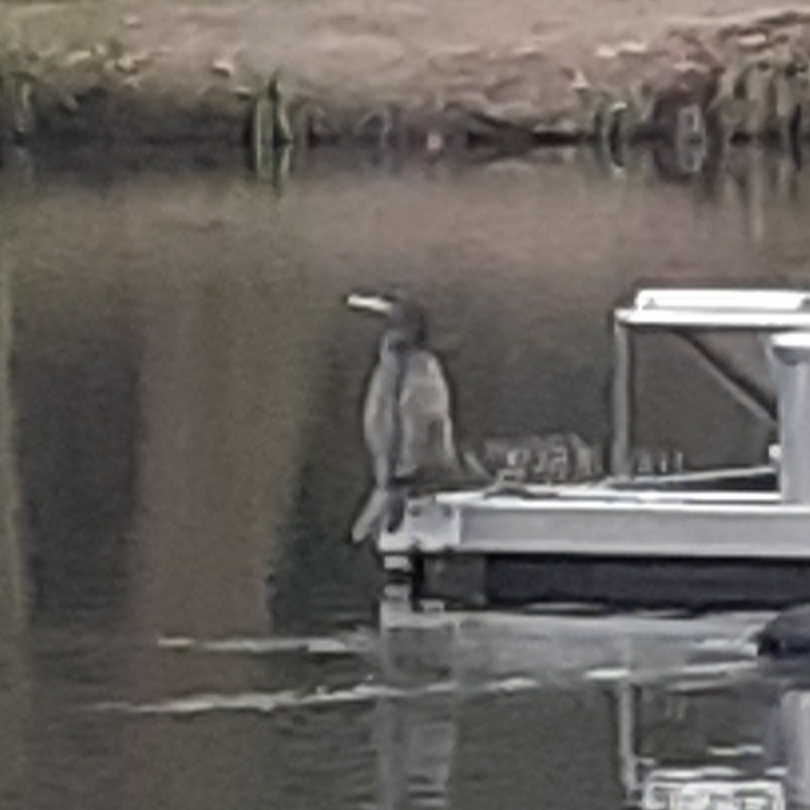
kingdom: Animalia
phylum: Chordata
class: Aves
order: Suliformes
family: Phalacrocoracidae
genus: Phalacrocorax
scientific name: Phalacrocorax carbo
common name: Great cormorant
